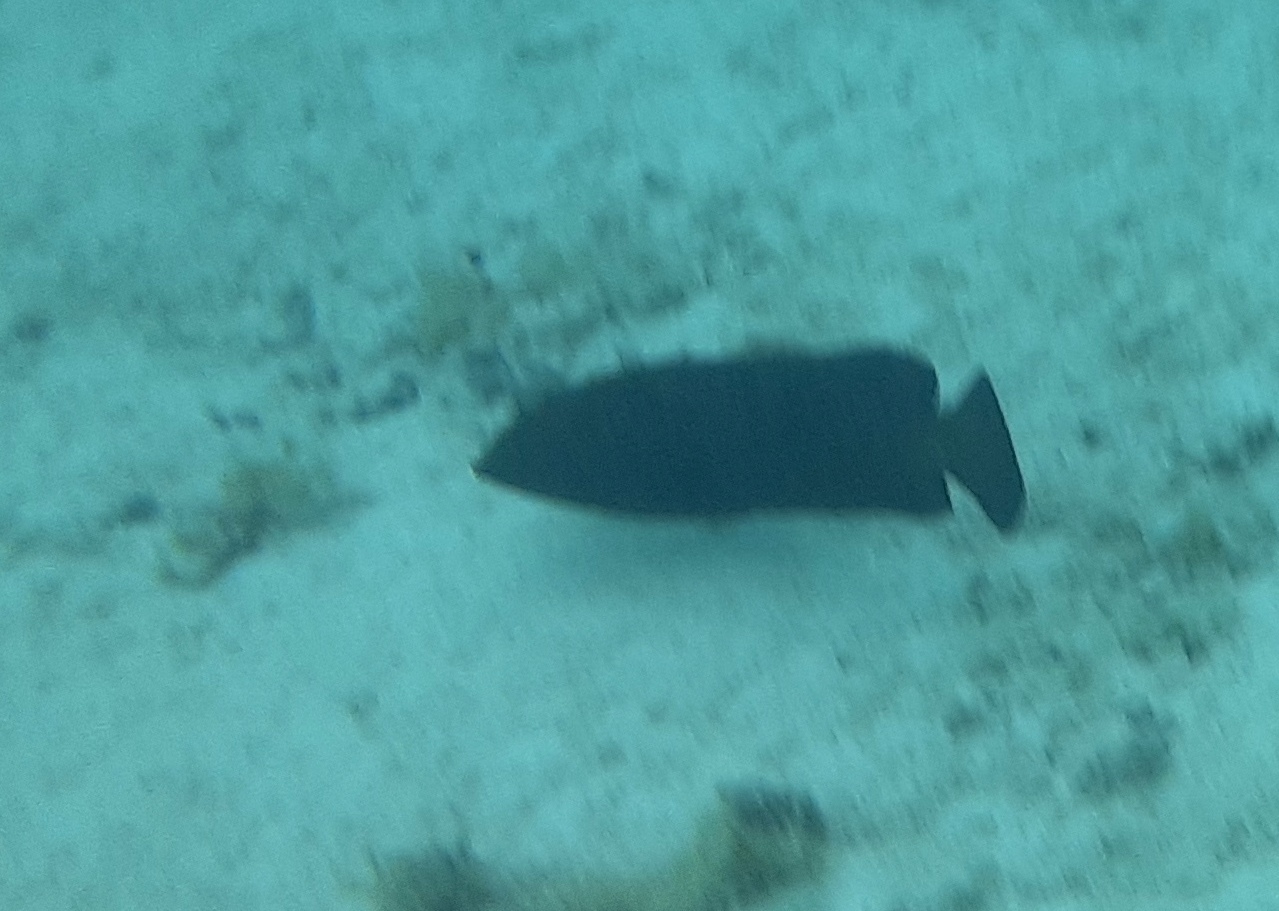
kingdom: Animalia
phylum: Chordata
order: Perciformes
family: Serranidae
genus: Cephalopholis
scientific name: Cephalopholis argus
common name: Peacock grouper
